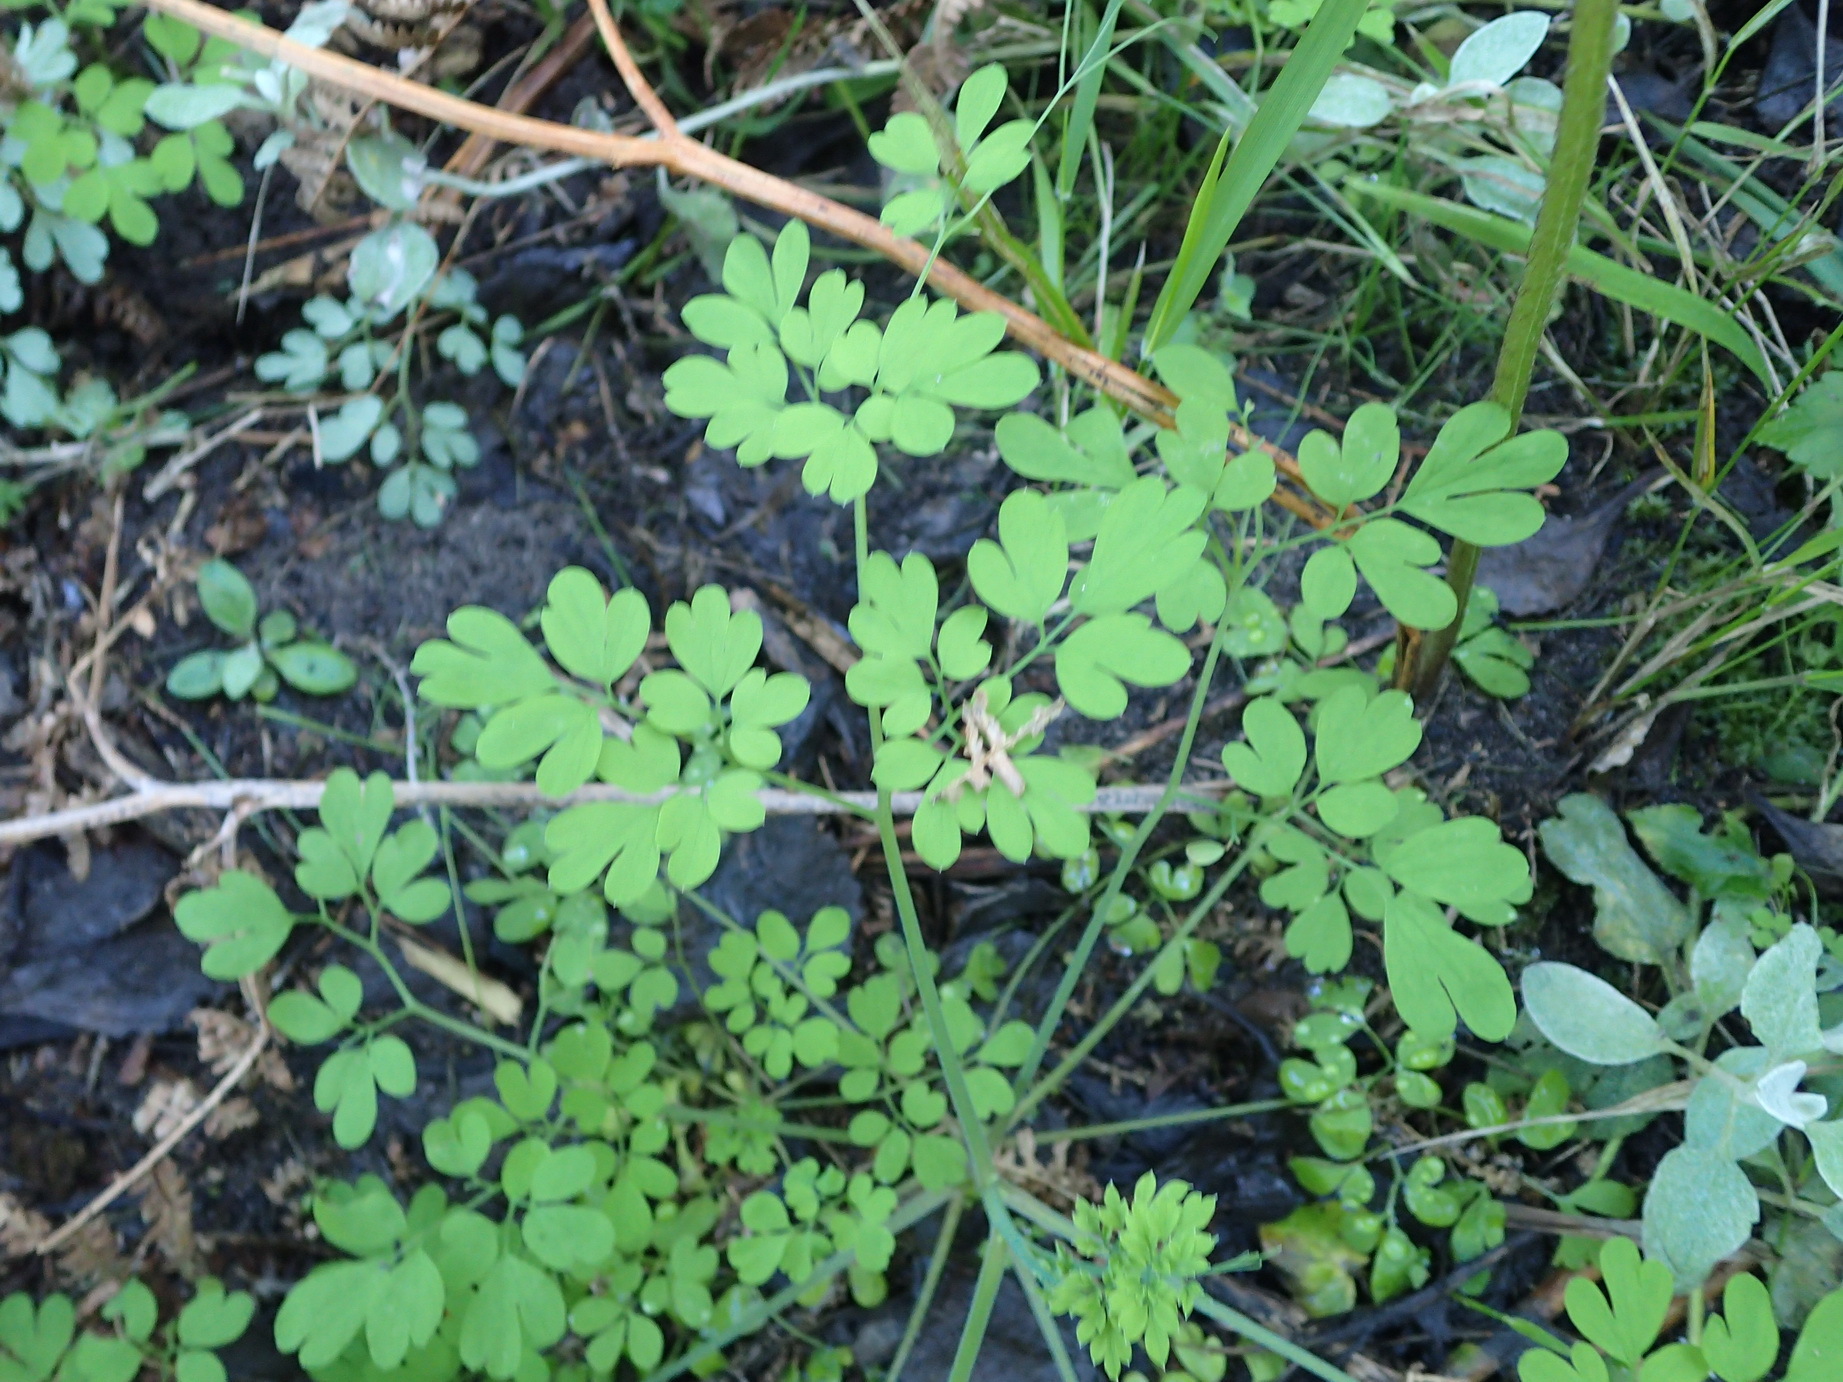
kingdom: Plantae
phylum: Tracheophyta
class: Magnoliopsida
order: Ranunculales
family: Papaveraceae
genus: Fumaria
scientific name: Fumaria muralis
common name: Common ramping-fumitory
